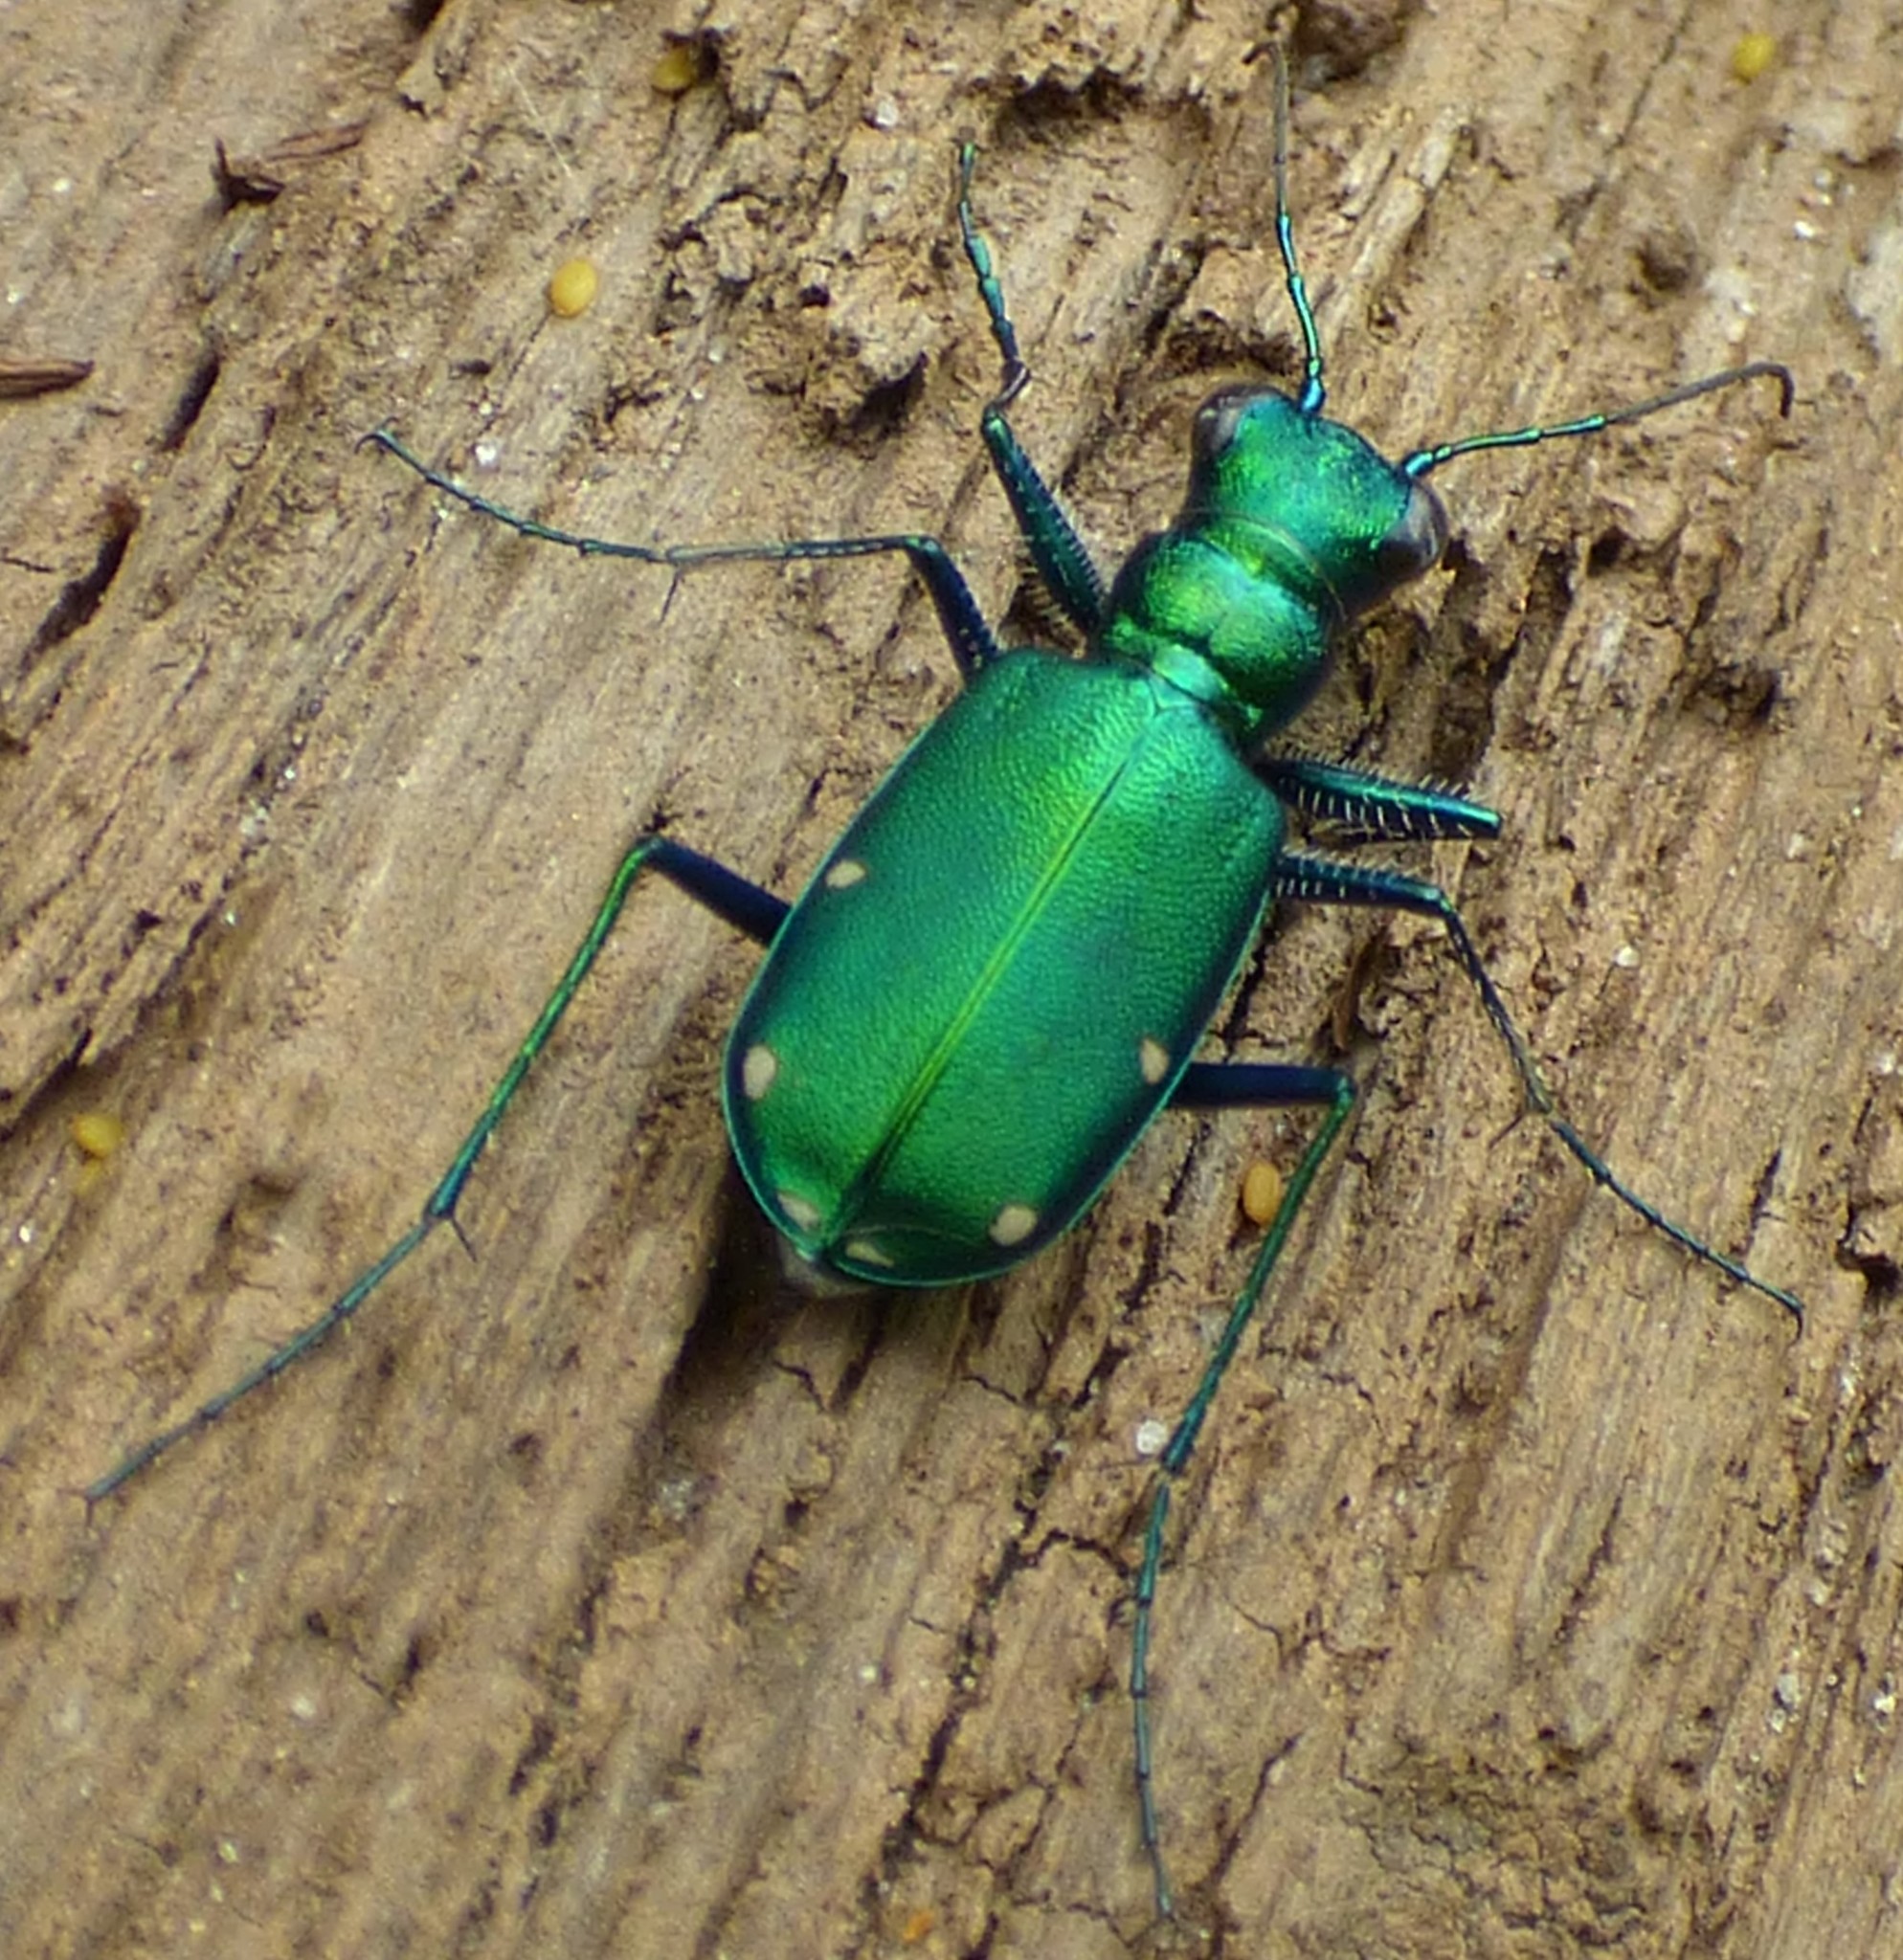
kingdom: Animalia
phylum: Arthropoda
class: Insecta
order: Coleoptera
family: Carabidae
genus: Cicindela
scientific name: Cicindela sexguttata
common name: Six-spotted tiger beetle
